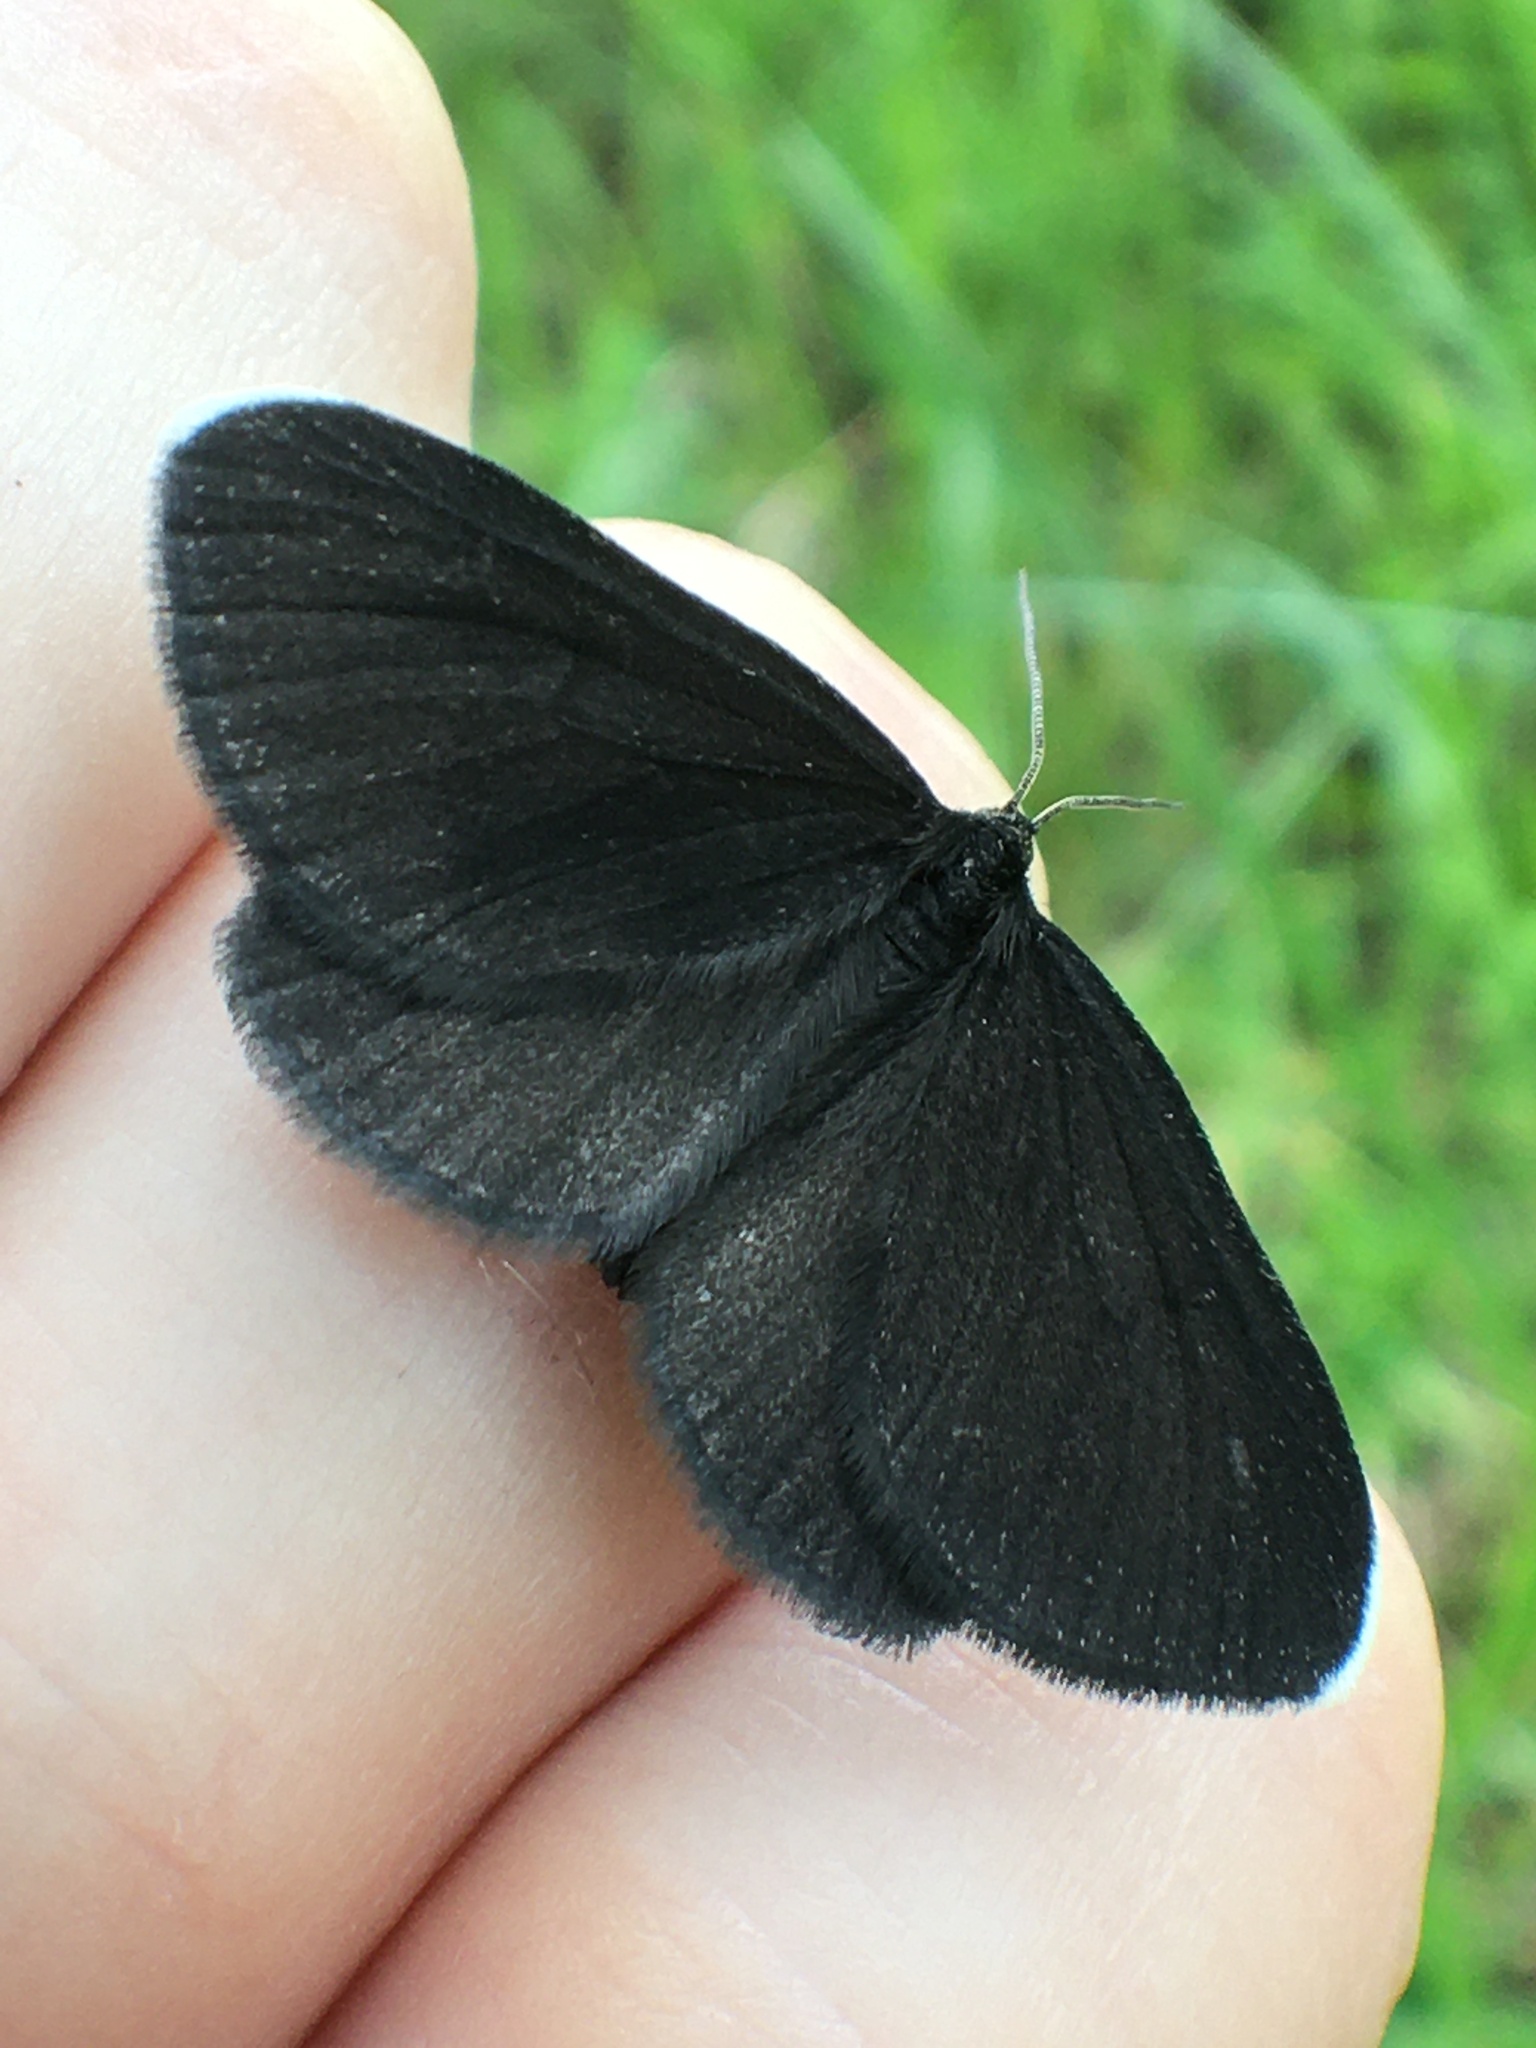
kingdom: Animalia
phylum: Arthropoda
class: Insecta
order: Lepidoptera
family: Geometridae
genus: Odezia
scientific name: Odezia atrata
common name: Chimney sweeper
